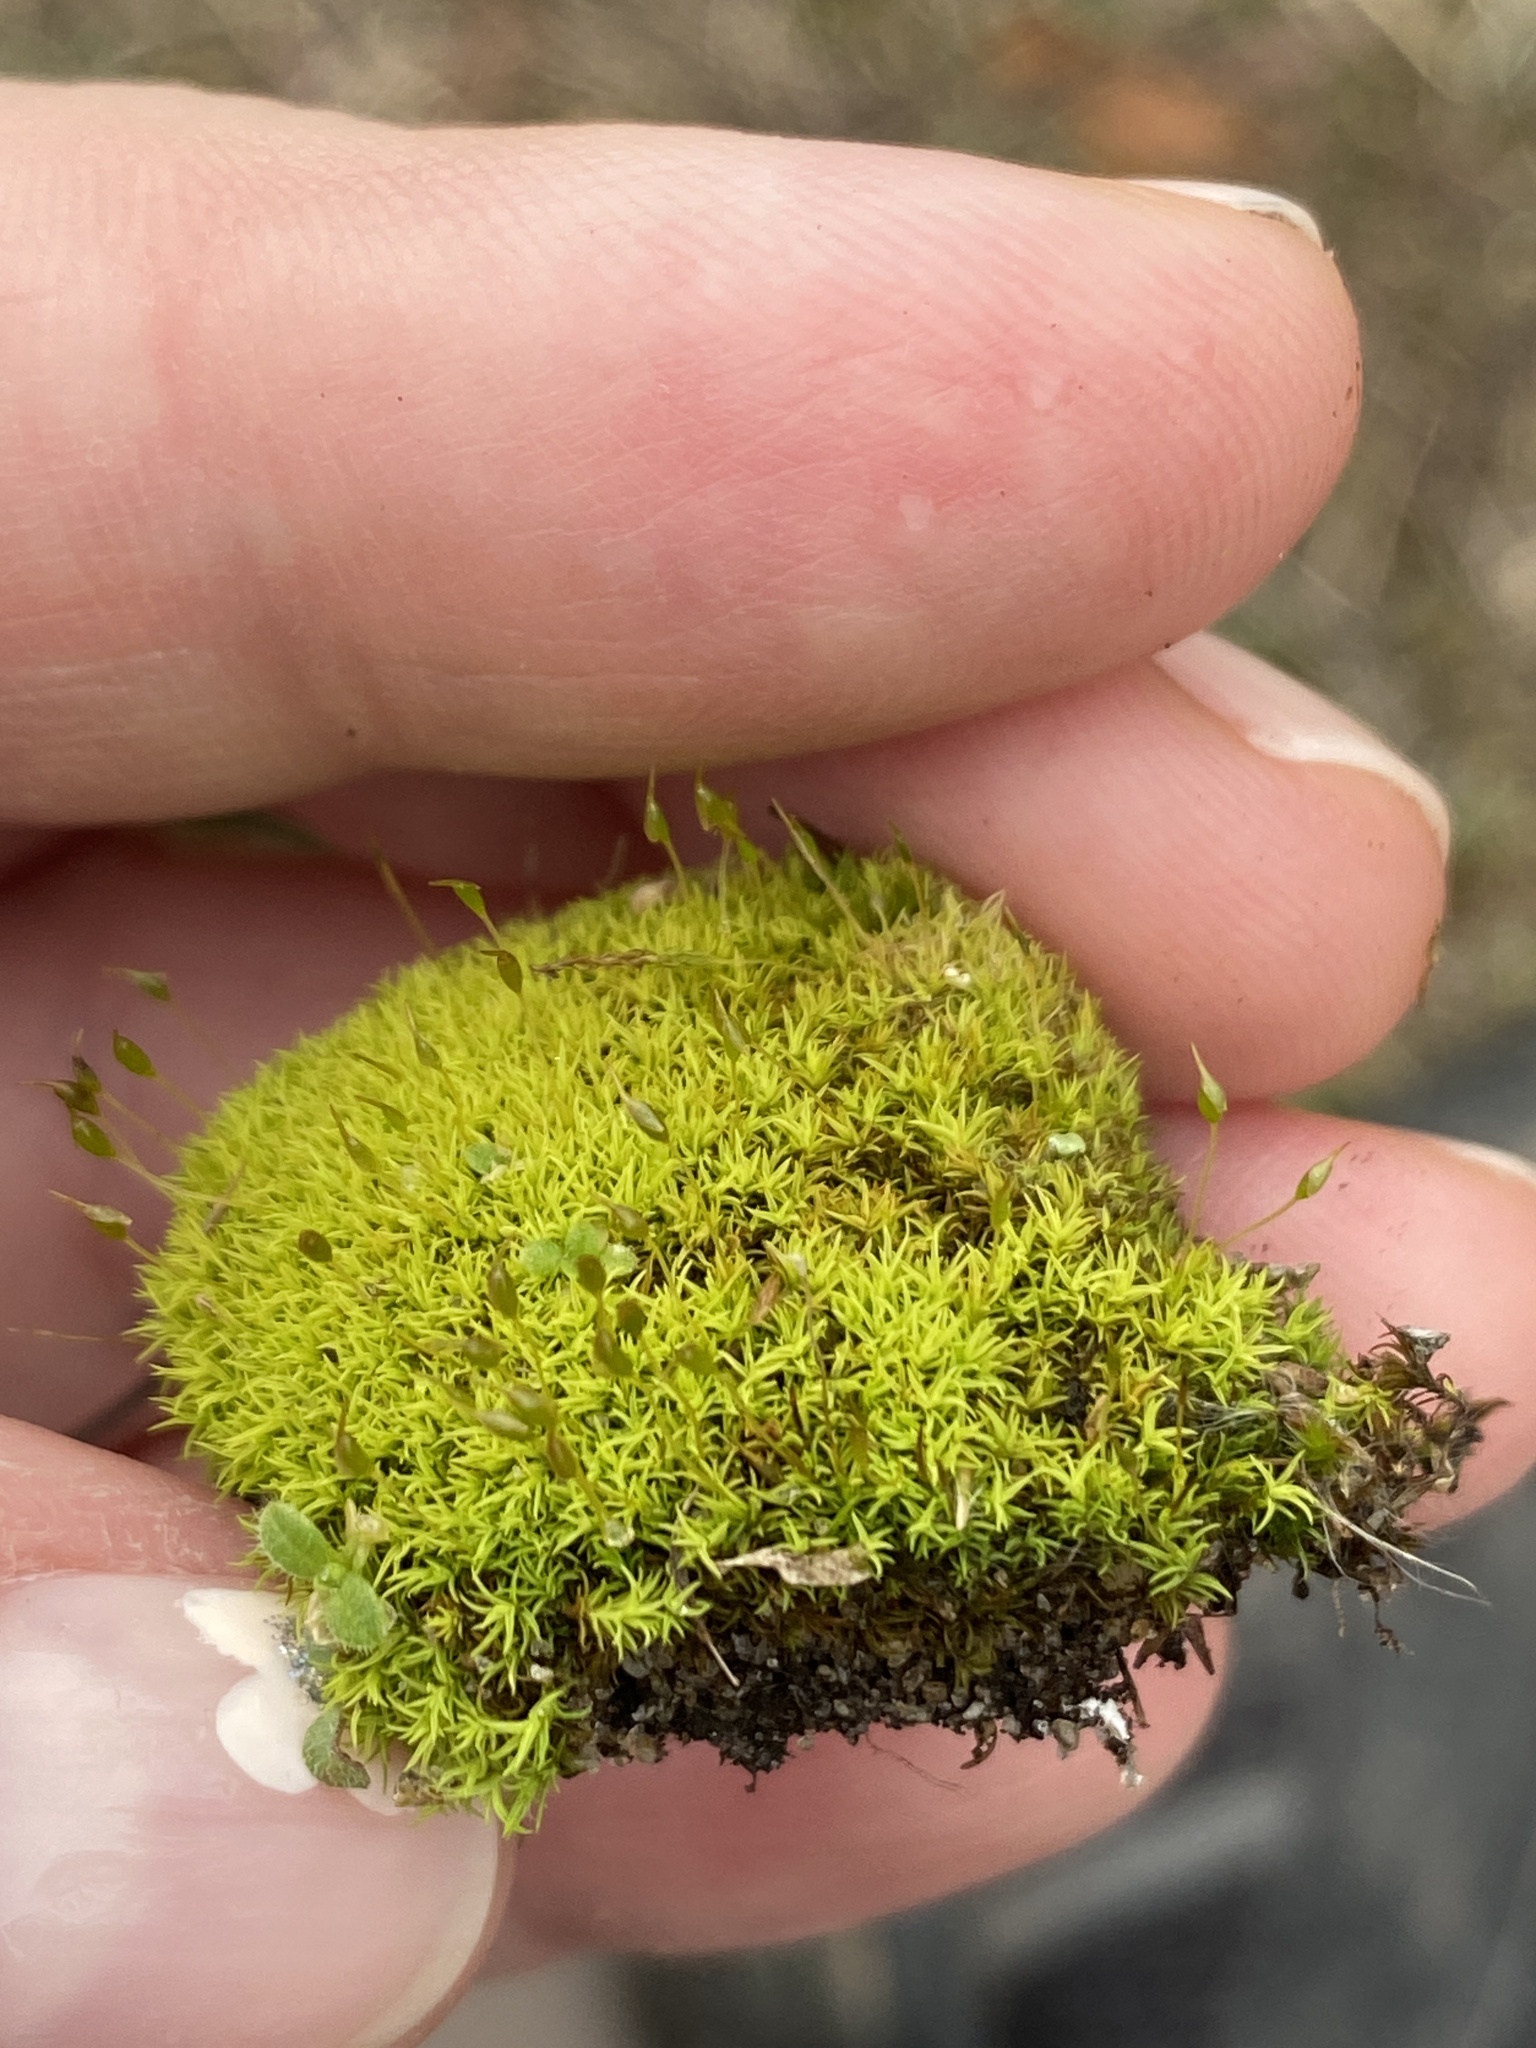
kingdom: Plantae
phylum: Bryophyta
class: Bryopsida
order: Pottiales
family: Pottiaceae
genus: Weissia
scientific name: Weissia controversa
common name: Green-tufted stubble moss
